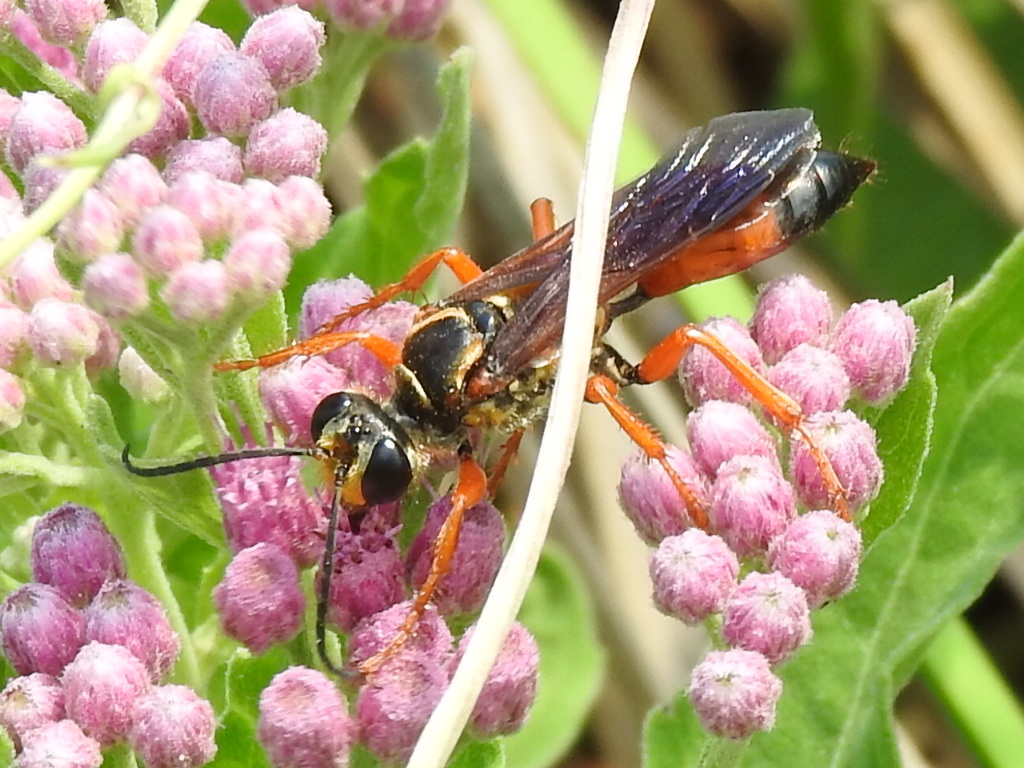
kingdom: Animalia
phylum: Arthropoda
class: Insecta
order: Hymenoptera
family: Sphecidae
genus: Sphex
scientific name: Sphex ichneumoneus
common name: Great golden digger wasp
